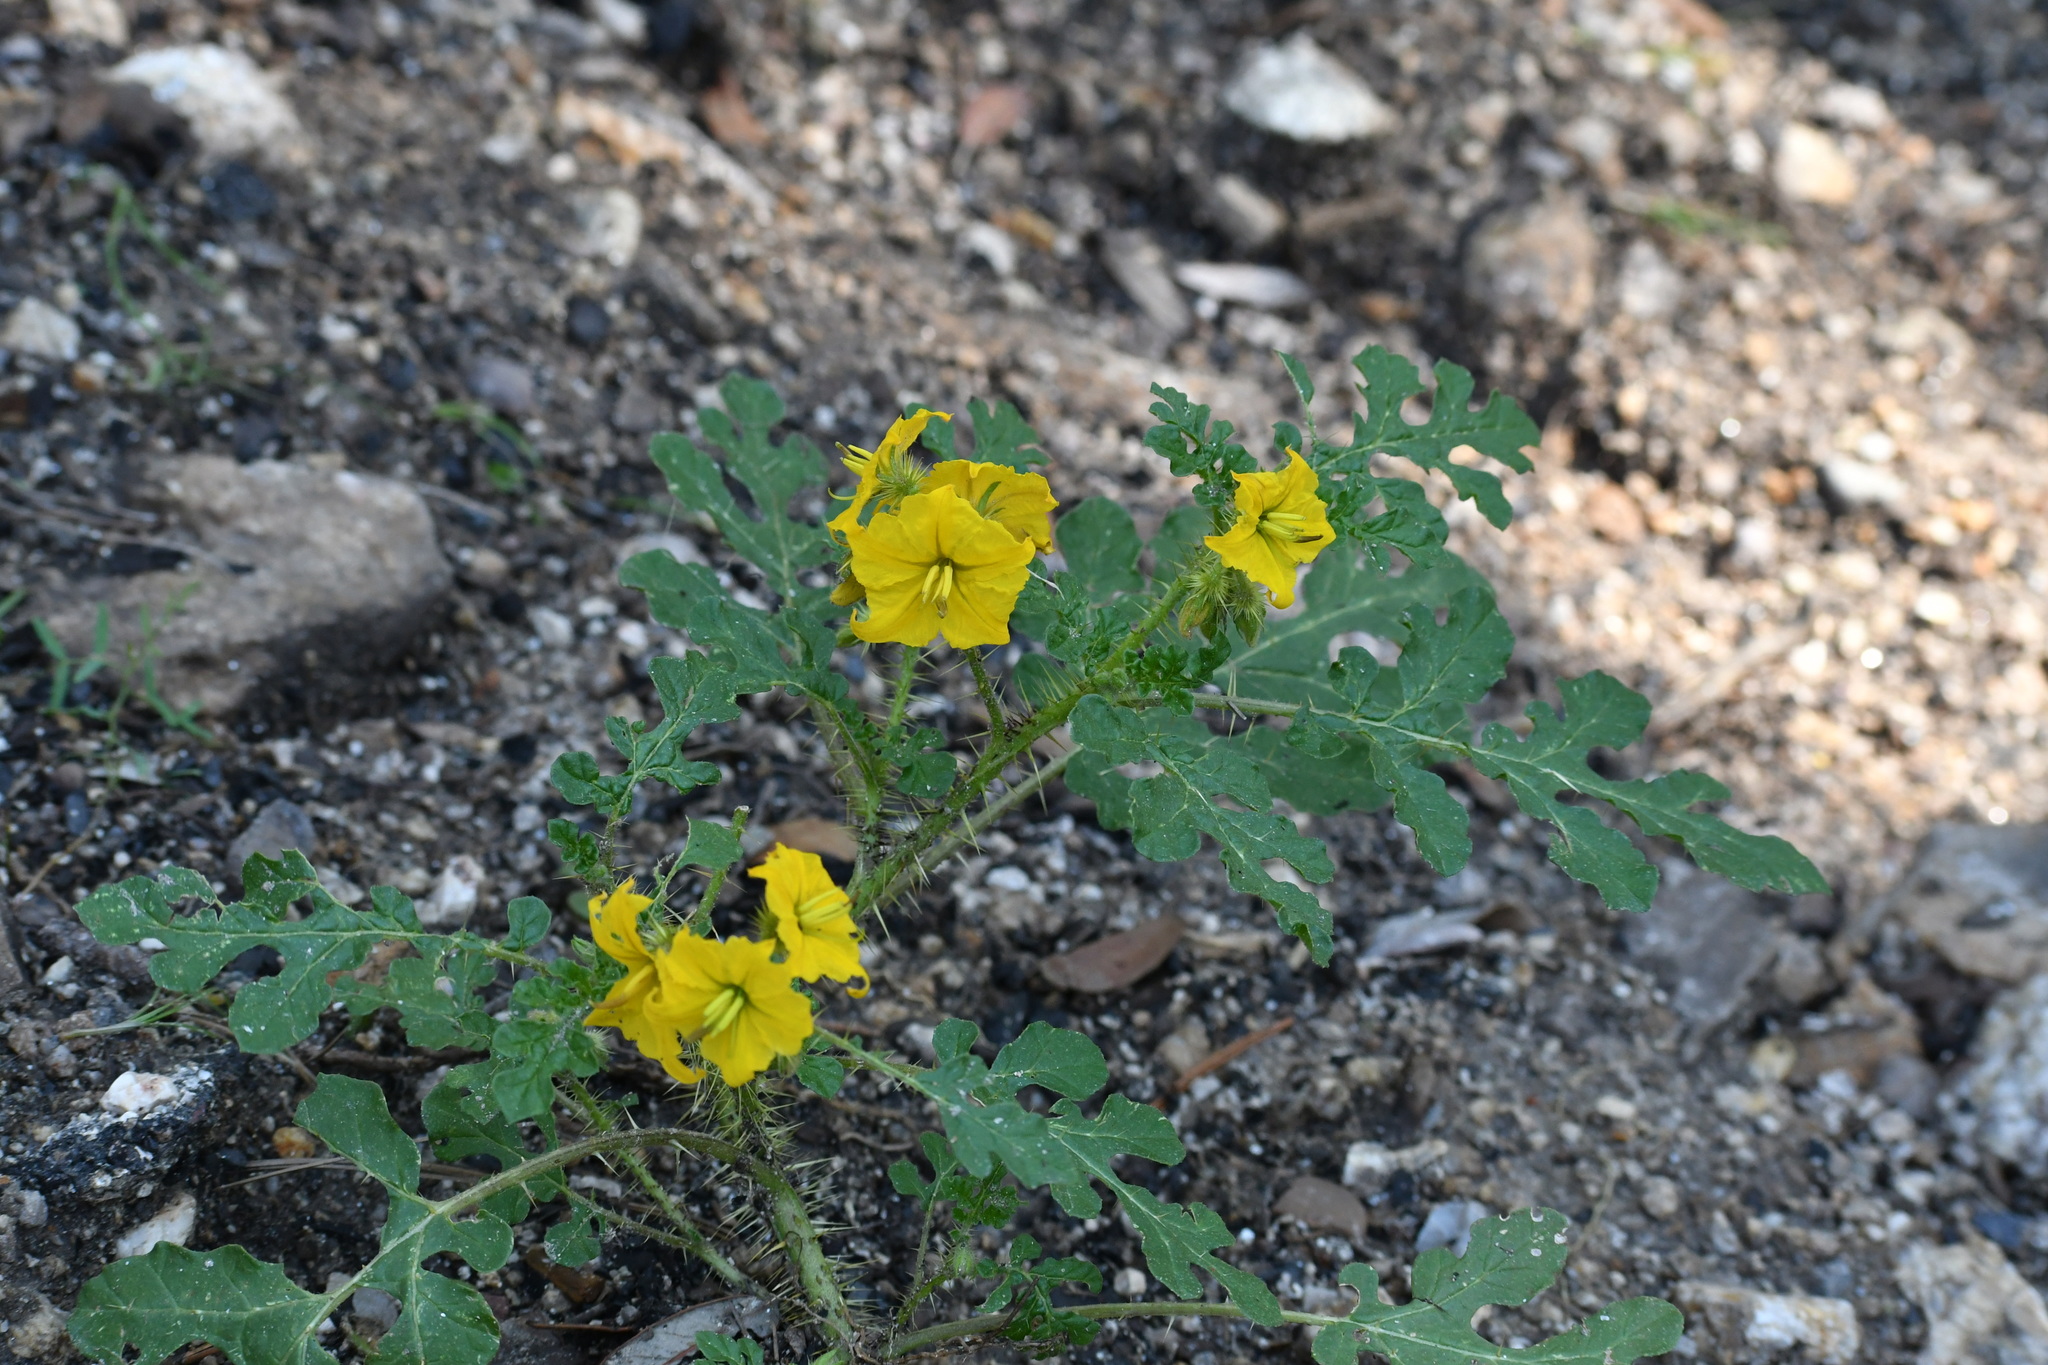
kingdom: Plantae
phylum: Tracheophyta
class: Magnoliopsida
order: Solanales
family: Solanaceae
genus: Solanum
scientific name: Solanum angustifolium
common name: Buffalobur nightshade
